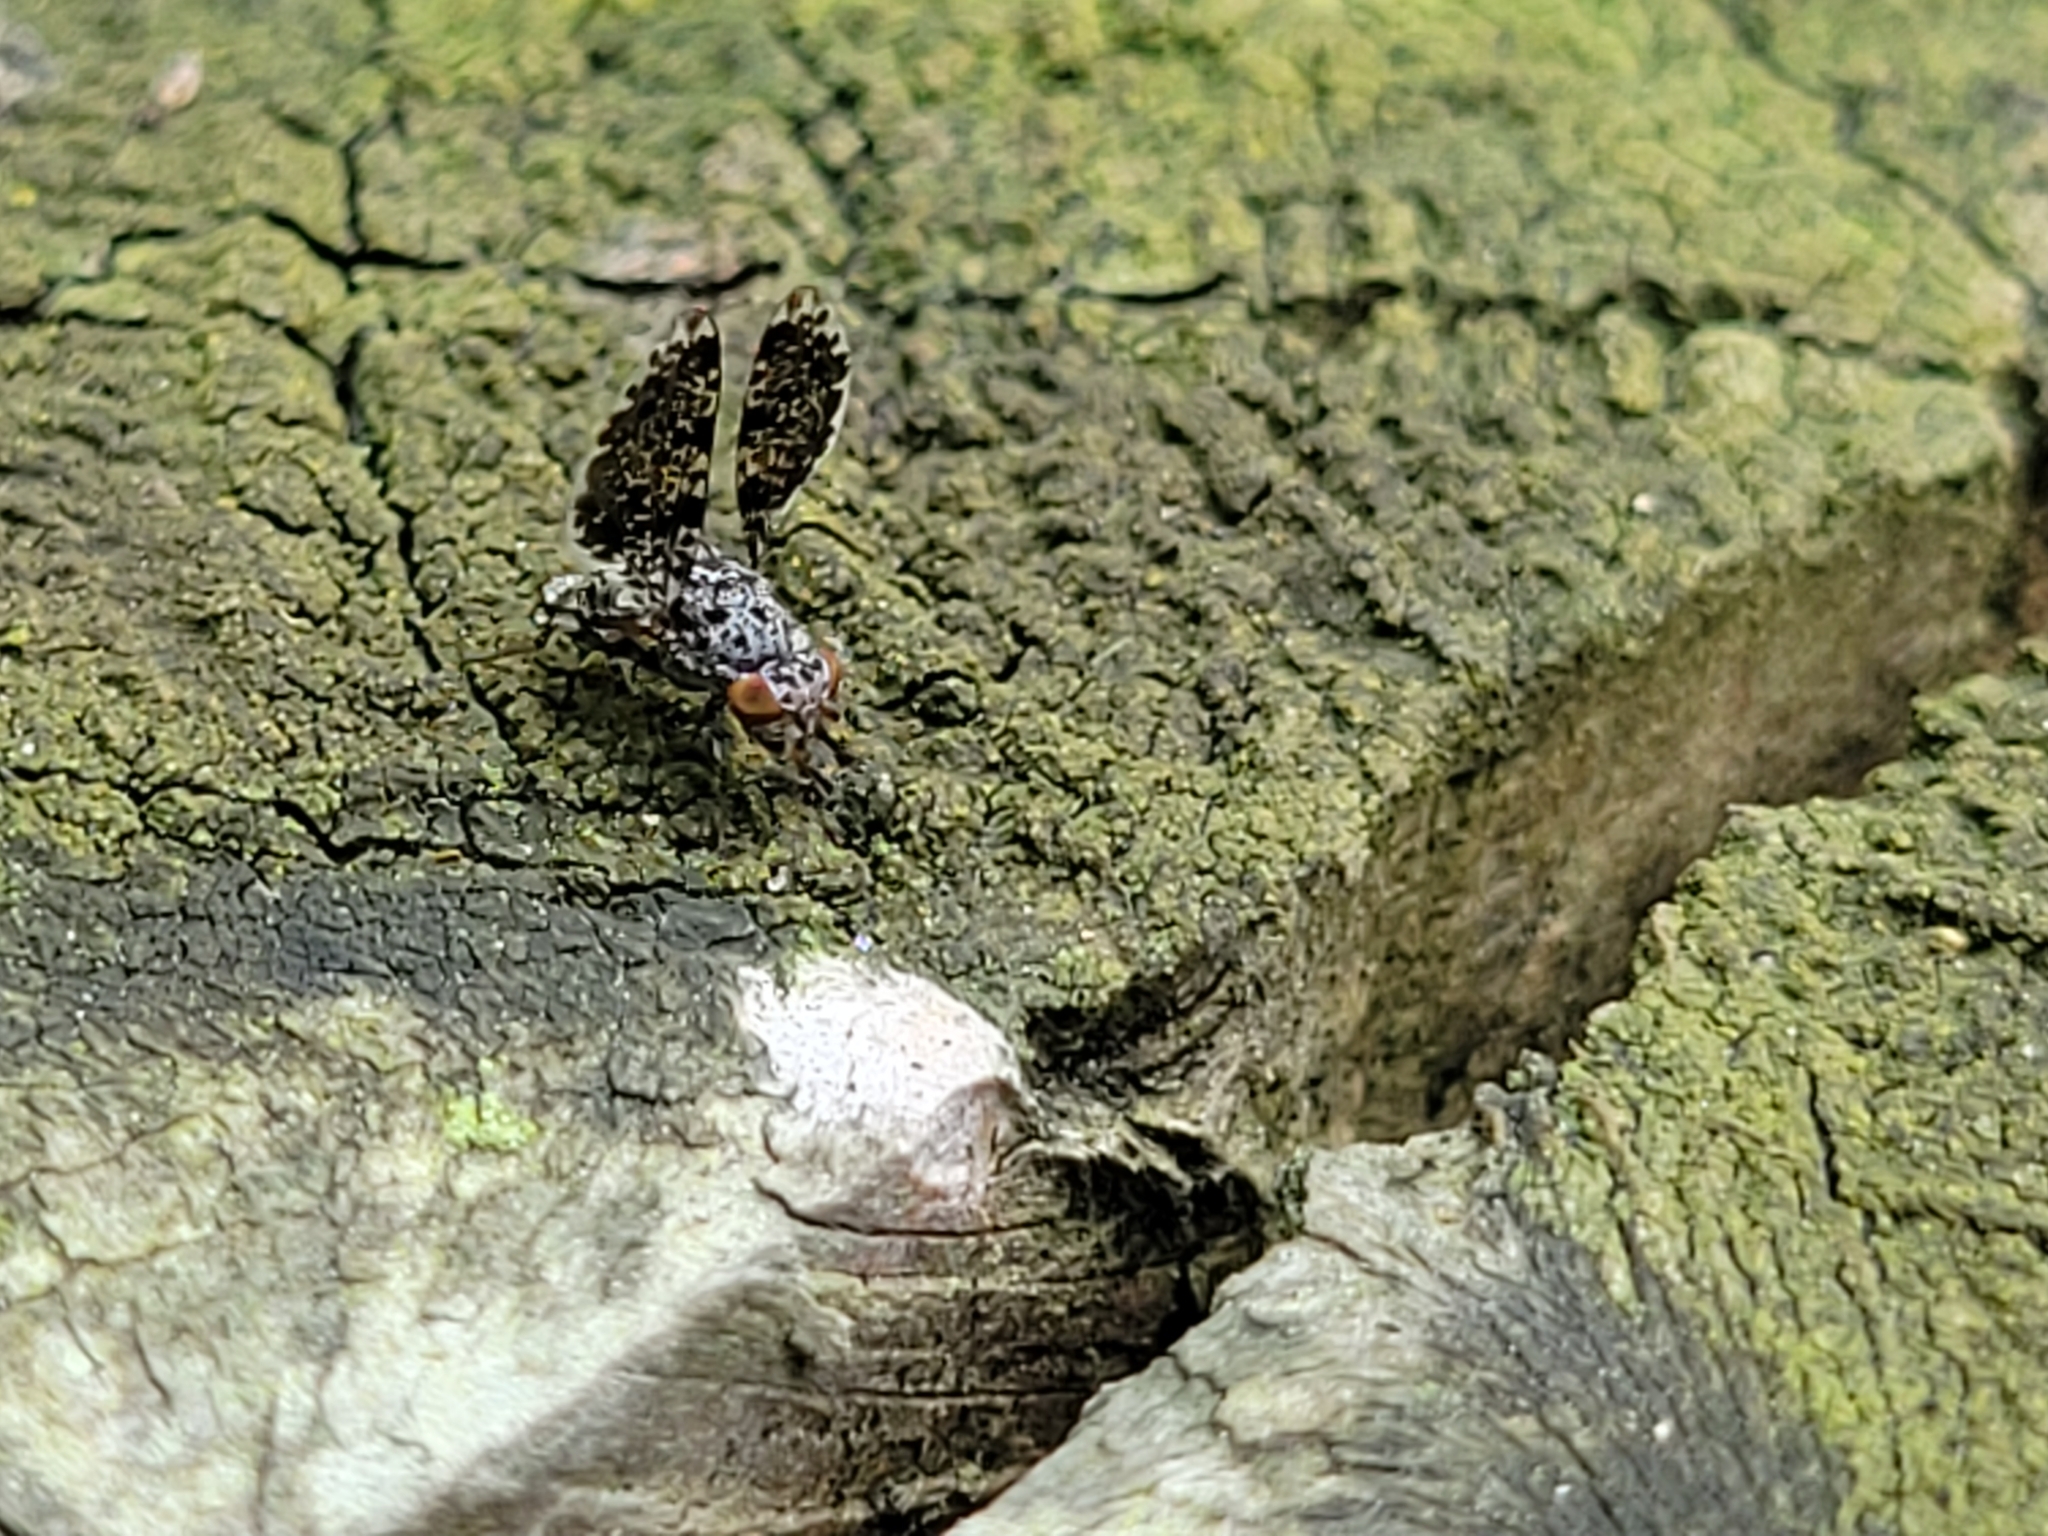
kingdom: Animalia
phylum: Arthropoda
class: Insecta
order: Diptera
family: Ulidiidae
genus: Callopistromyia
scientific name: Callopistromyia annulipes
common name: Peacock fly
